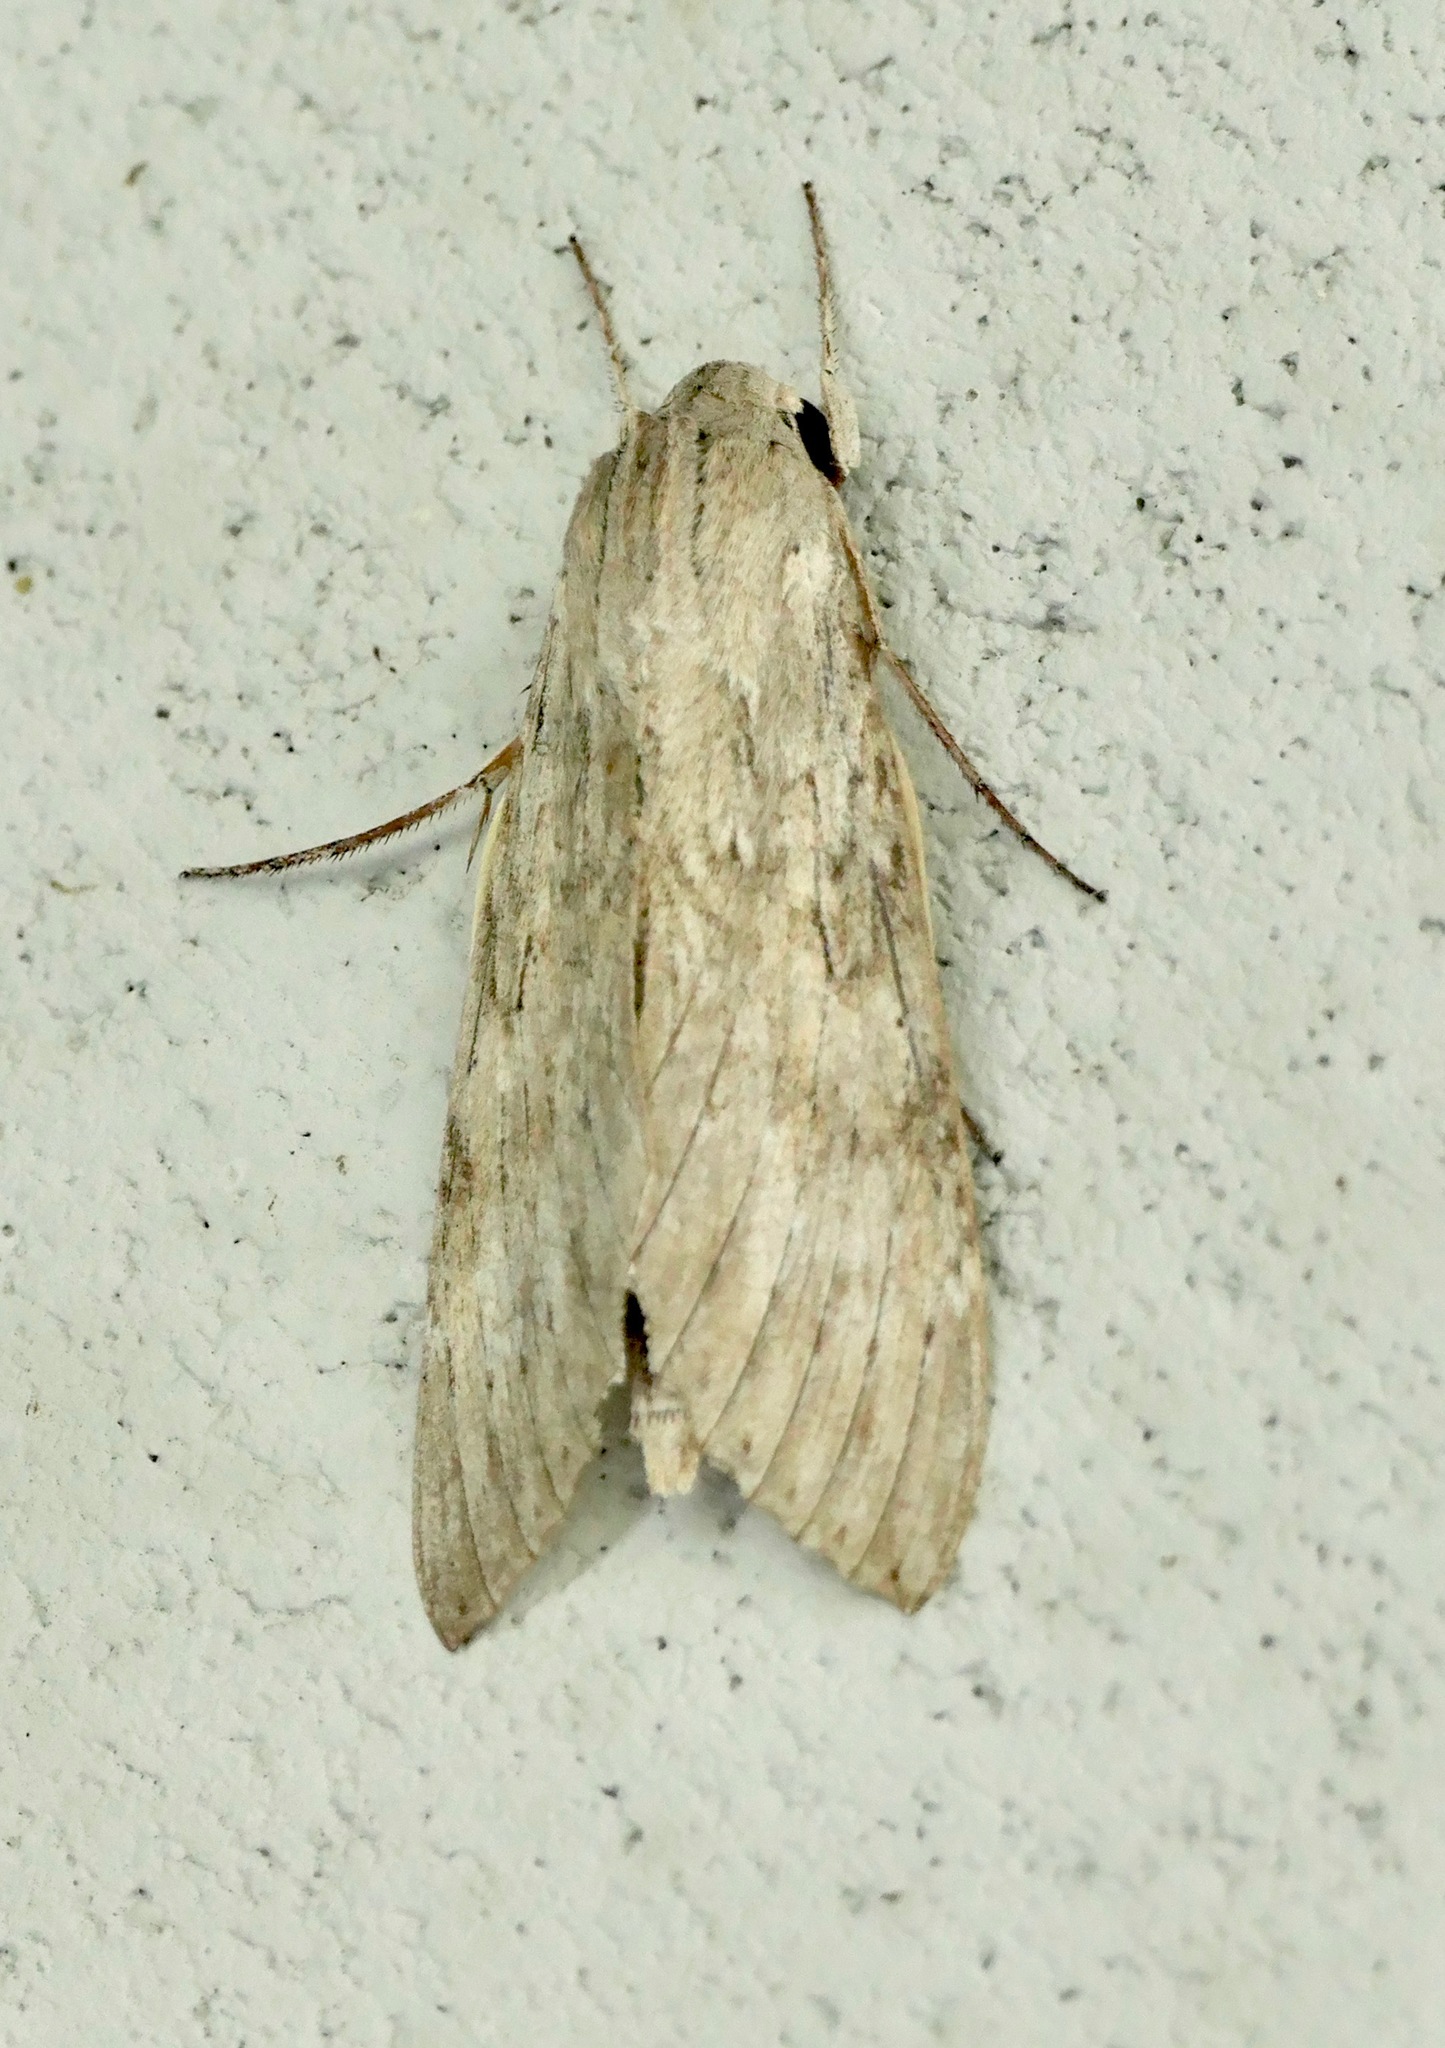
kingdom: Animalia
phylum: Arthropoda
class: Insecta
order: Lepidoptera
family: Sphingidae
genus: Erinnyis
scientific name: Erinnyis ello
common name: Ello sphinx
